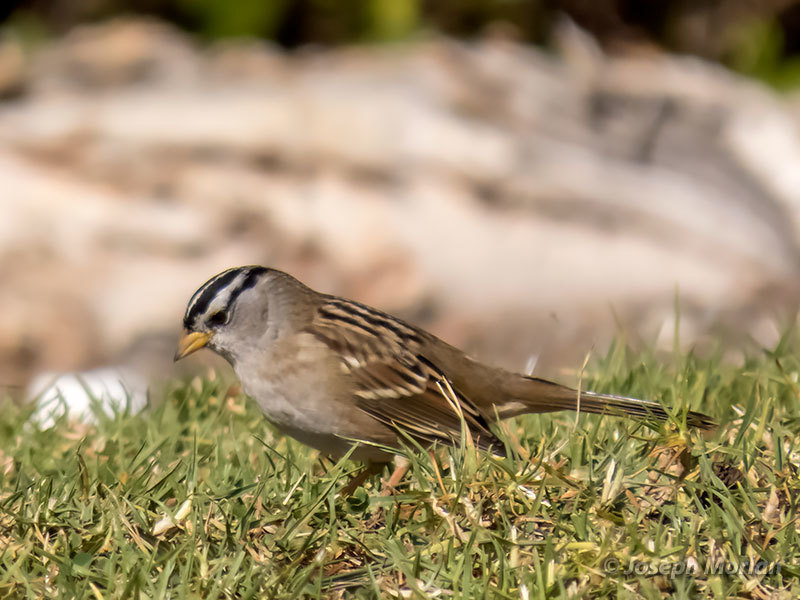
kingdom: Animalia
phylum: Chordata
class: Aves
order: Passeriformes
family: Passerellidae
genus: Zonotrichia
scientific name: Zonotrichia leucophrys
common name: White-crowned sparrow
